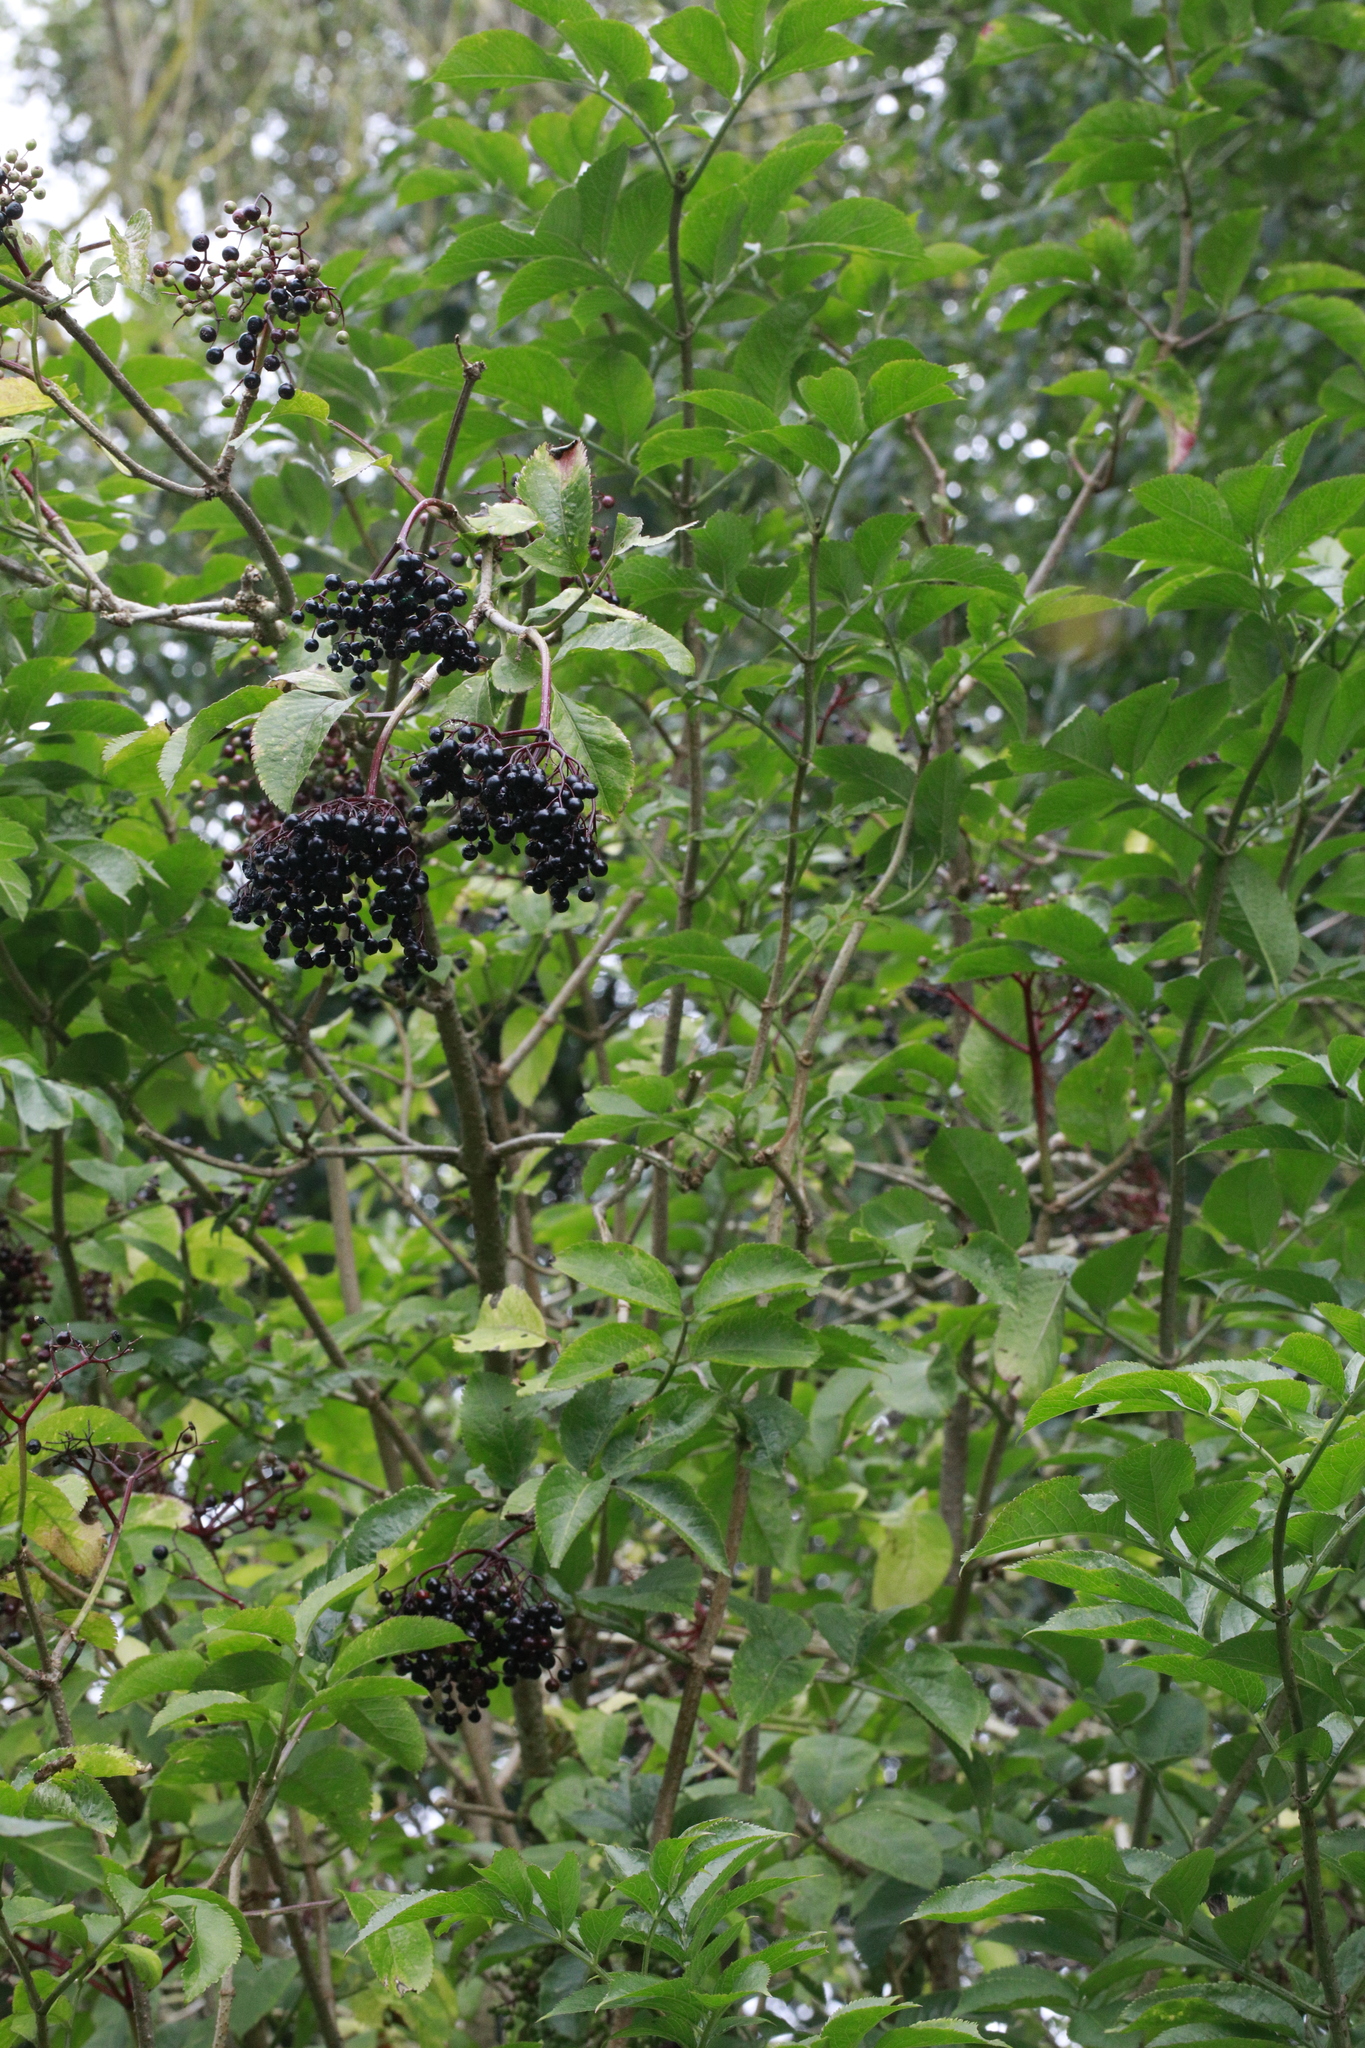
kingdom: Plantae
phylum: Tracheophyta
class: Magnoliopsida
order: Dipsacales
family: Viburnaceae
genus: Sambucus
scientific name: Sambucus nigra
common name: Elder
